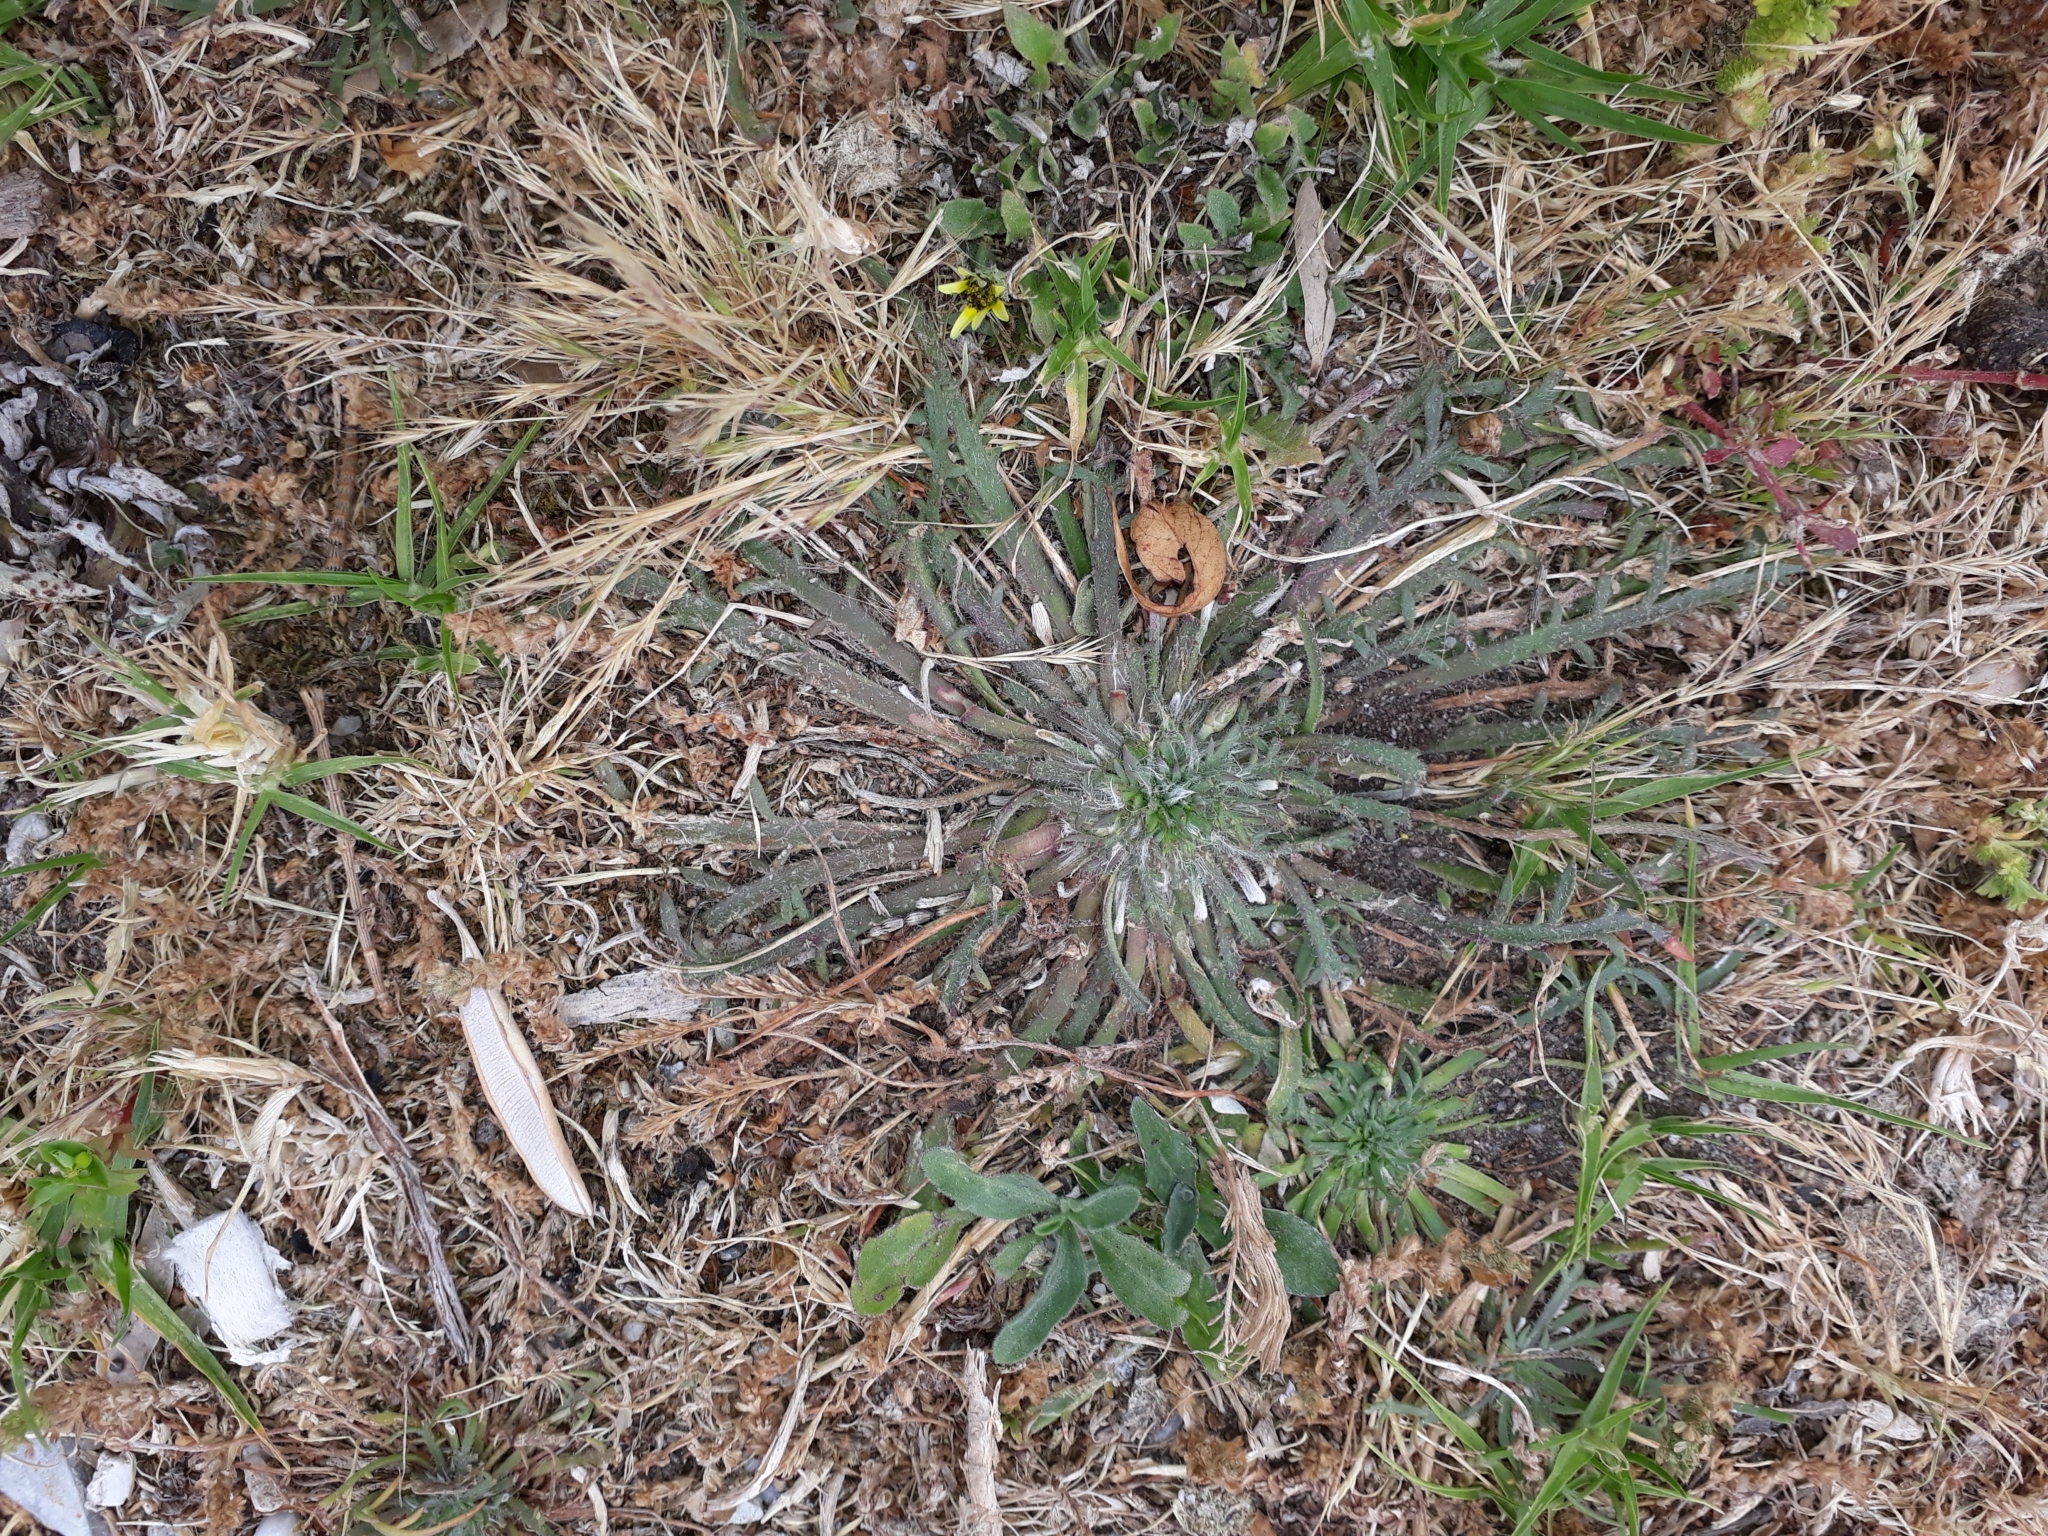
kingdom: Plantae
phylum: Tracheophyta
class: Magnoliopsida
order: Lamiales
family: Plantaginaceae
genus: Plantago
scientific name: Plantago coronopus
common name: Buck's-horn plantain
